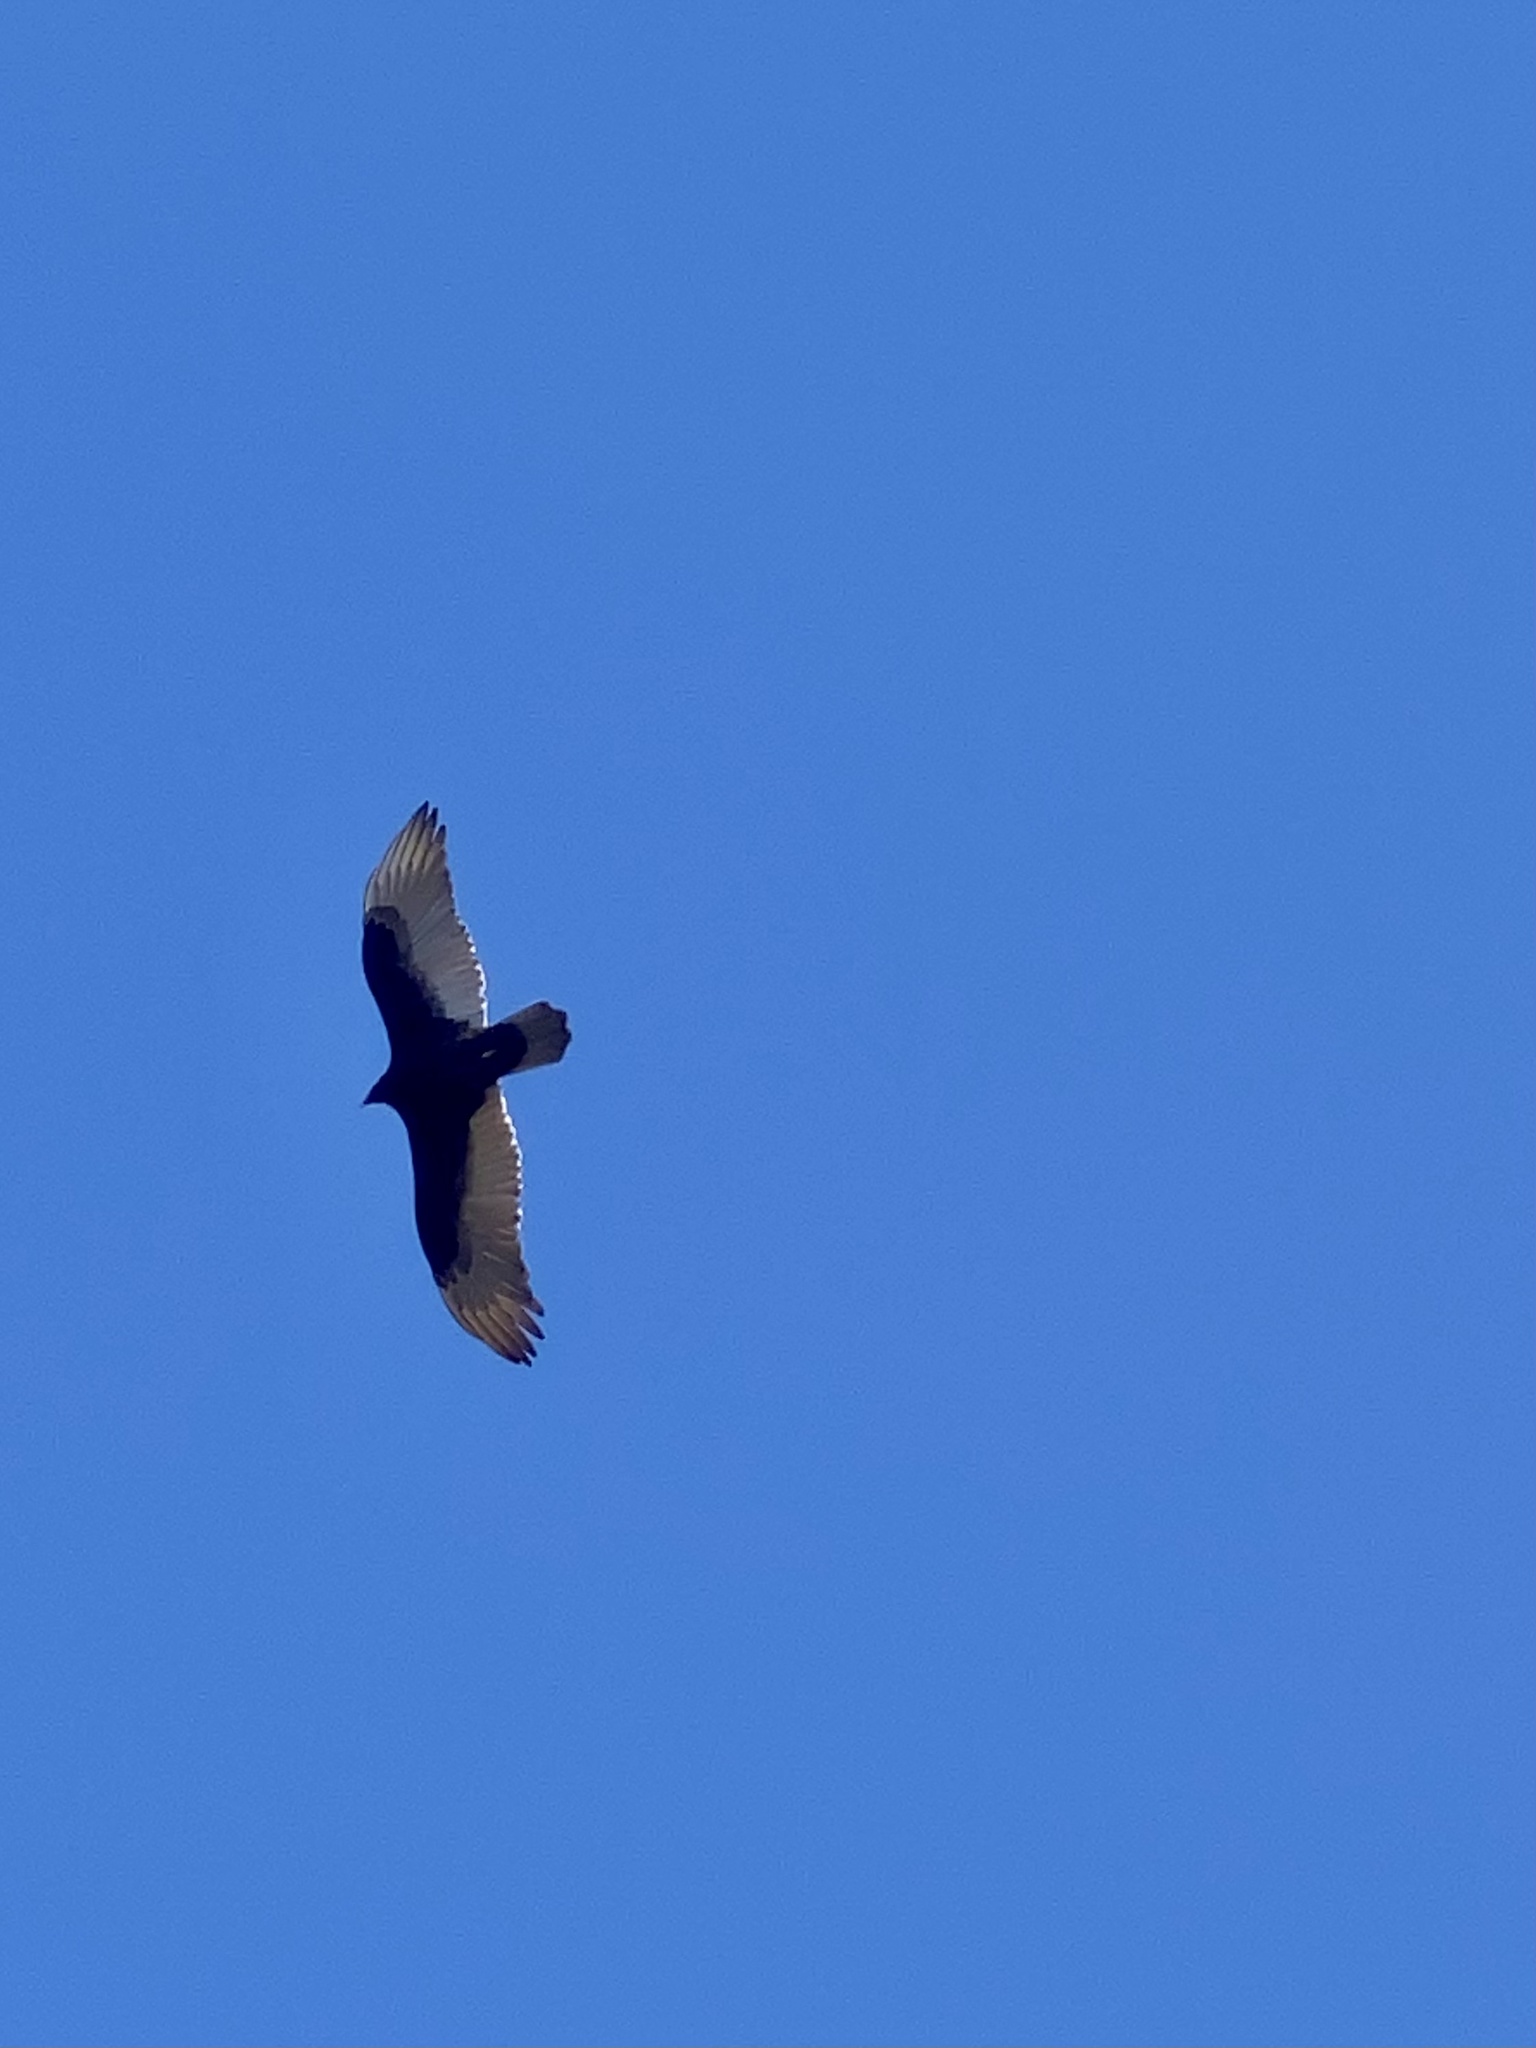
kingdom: Animalia
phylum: Chordata
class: Aves
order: Accipitriformes
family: Cathartidae
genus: Cathartes
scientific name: Cathartes aura
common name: Turkey vulture
